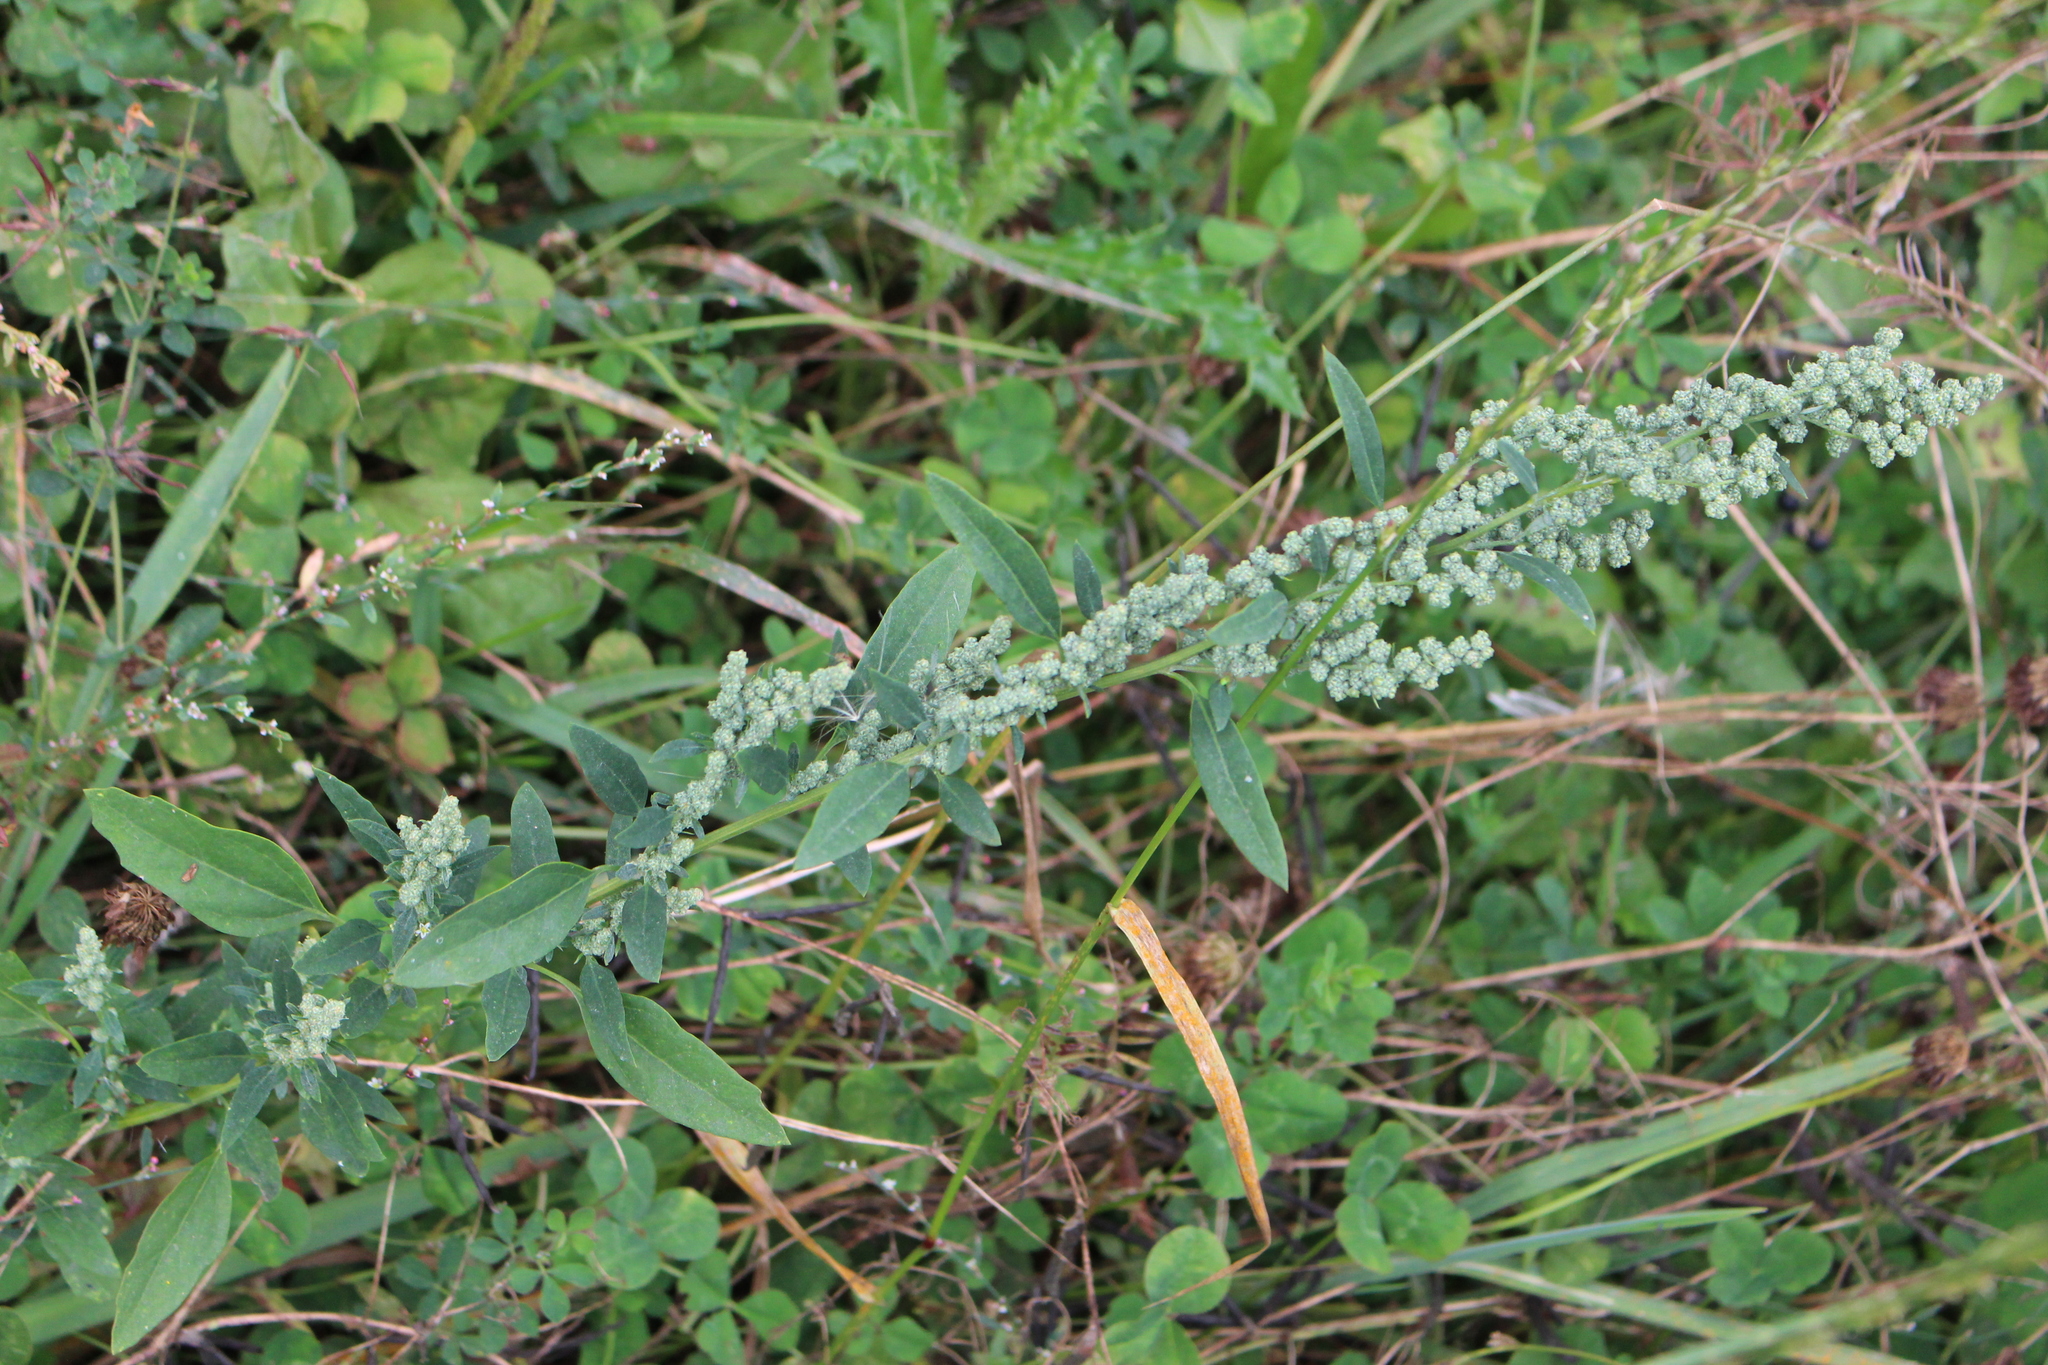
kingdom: Plantae
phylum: Tracheophyta
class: Magnoliopsida
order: Caryophyllales
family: Amaranthaceae
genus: Chenopodium
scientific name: Chenopodium album
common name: Fat-hen
